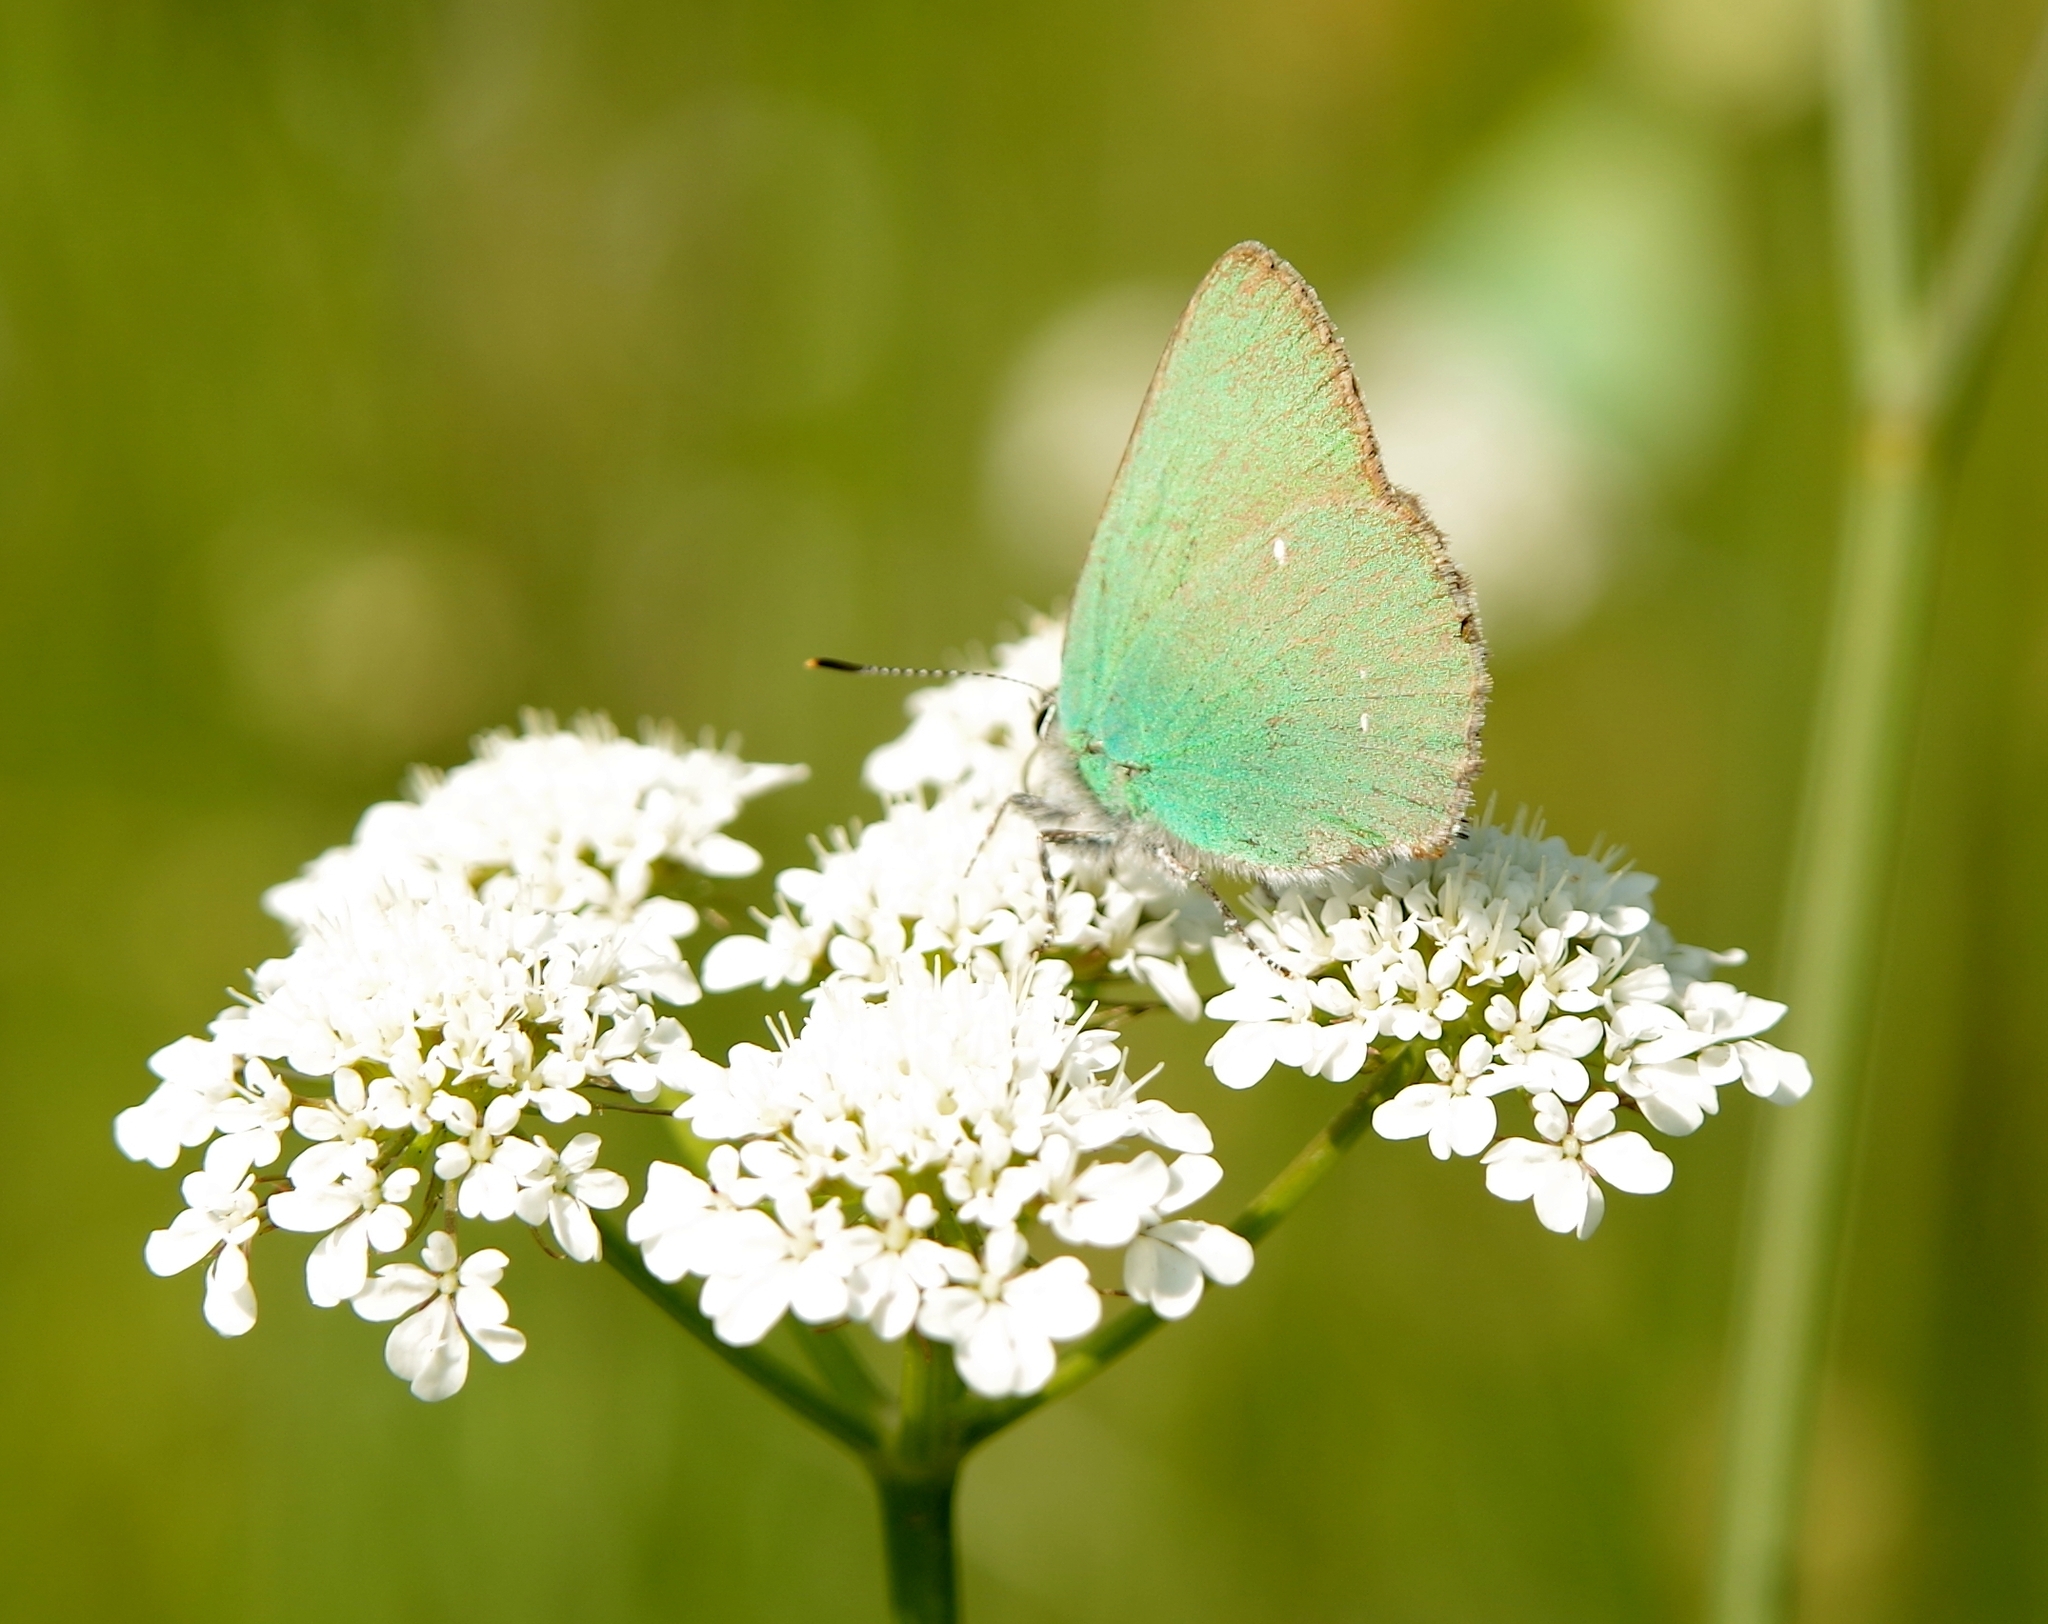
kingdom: Animalia
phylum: Arthropoda
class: Insecta
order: Lepidoptera
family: Lycaenidae
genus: Callophrys
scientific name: Callophrys rubi
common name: Green hairstreak
